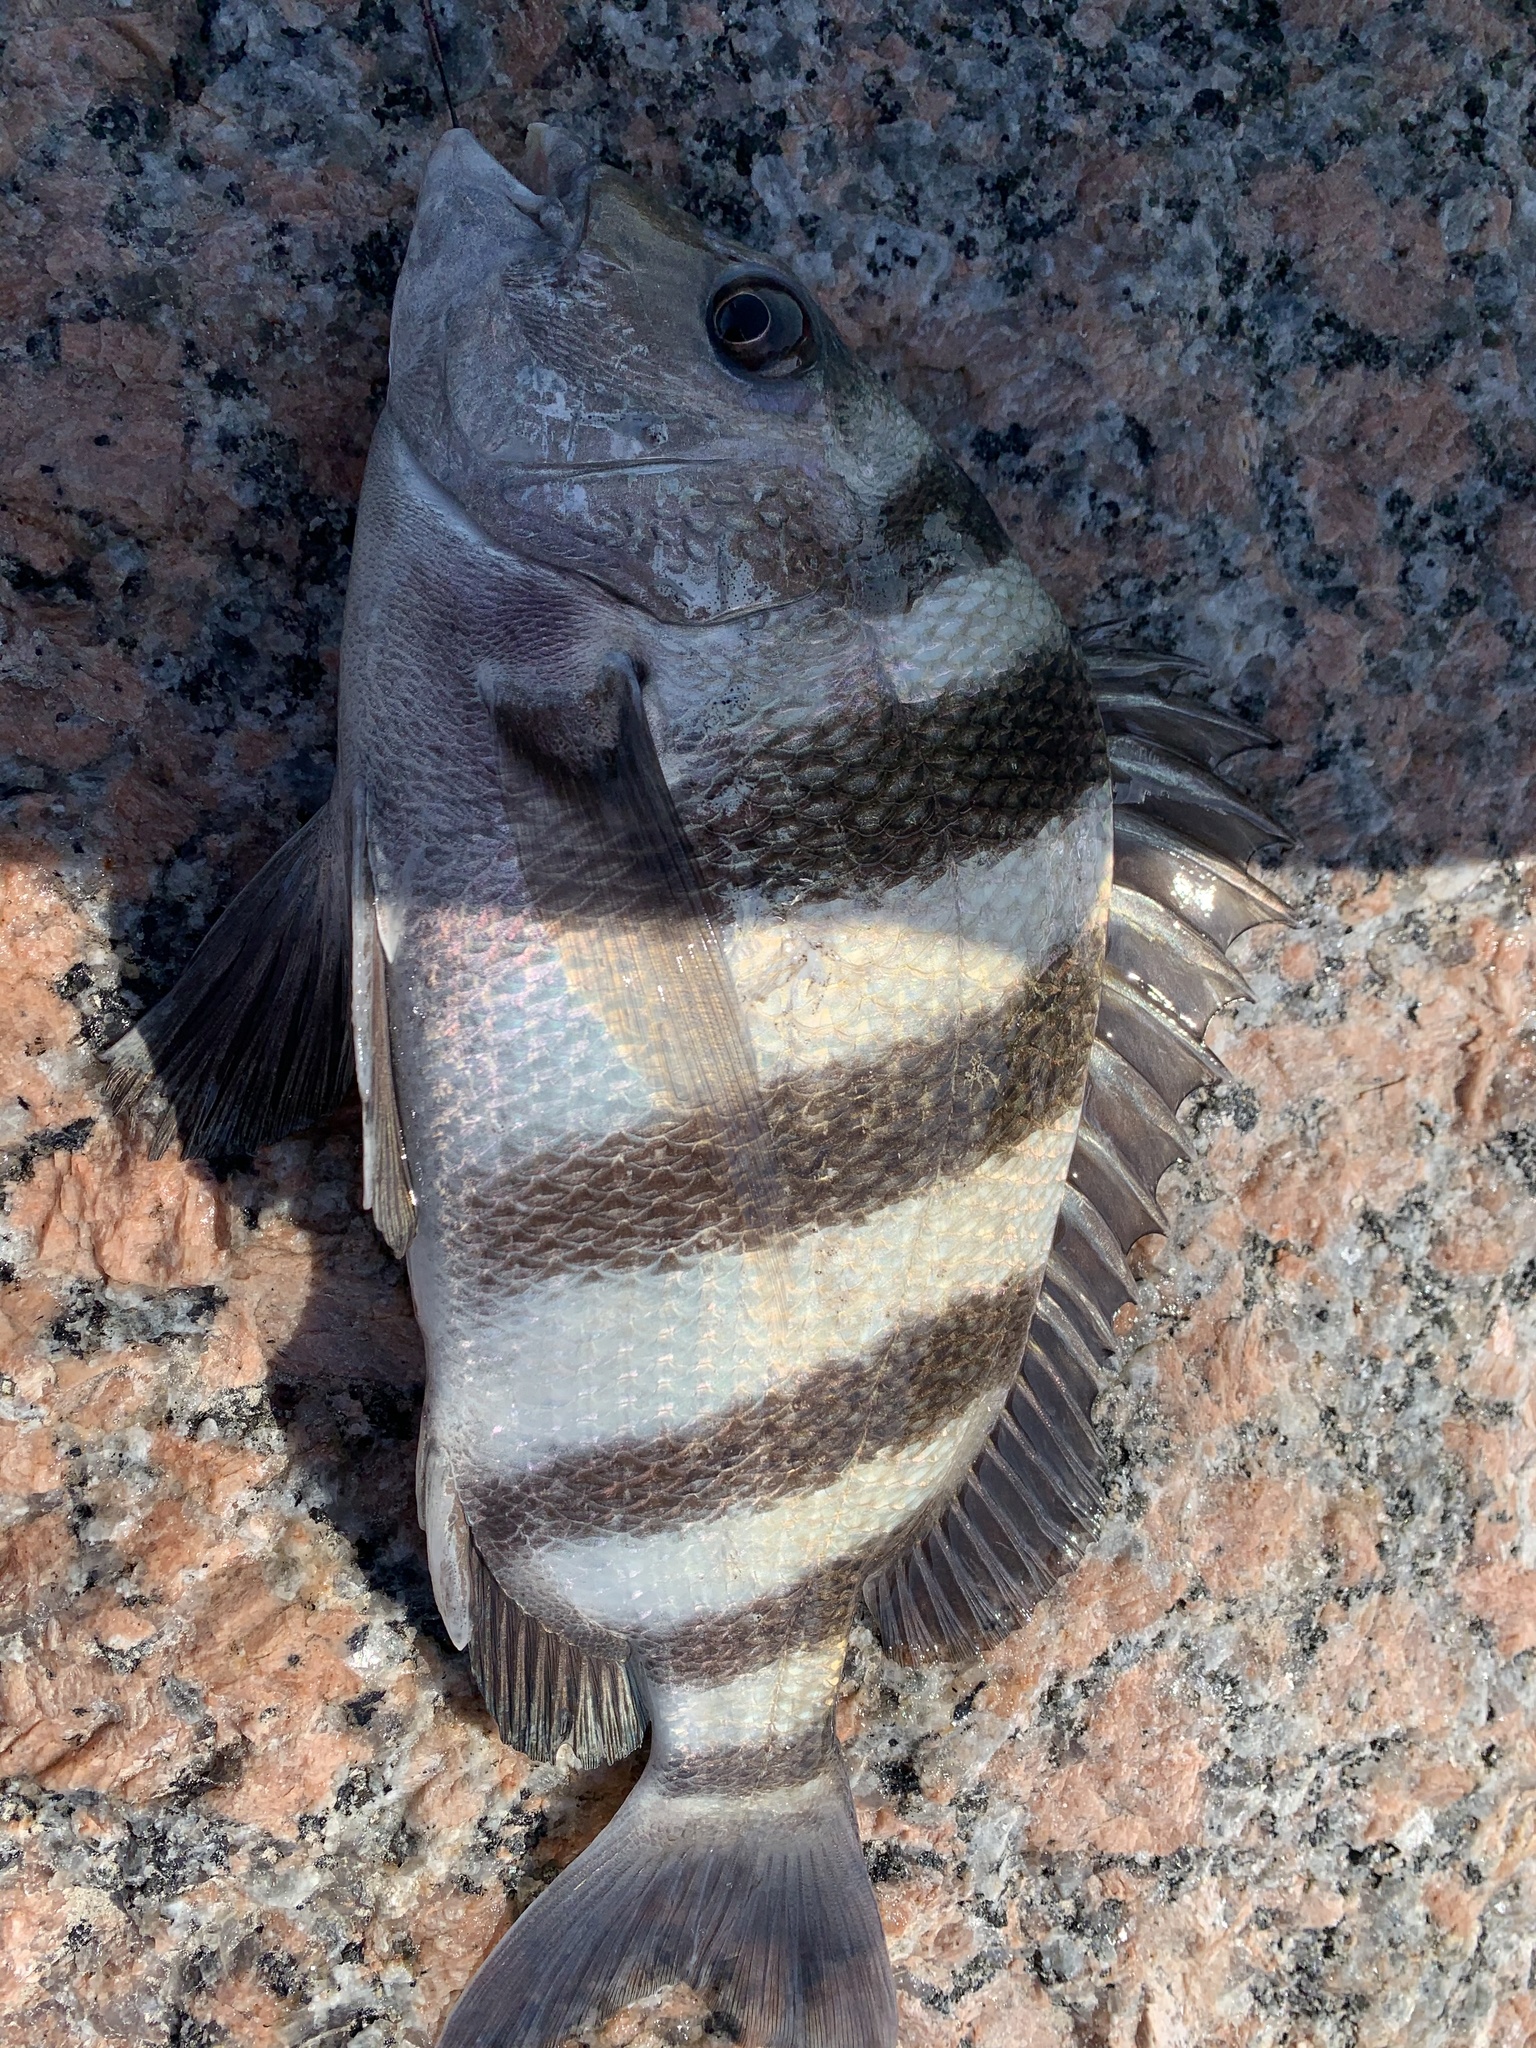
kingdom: Animalia
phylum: Chordata
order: Perciformes
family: Sparidae
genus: Archosargus
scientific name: Archosargus probatocephalus
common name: Sheepshead
